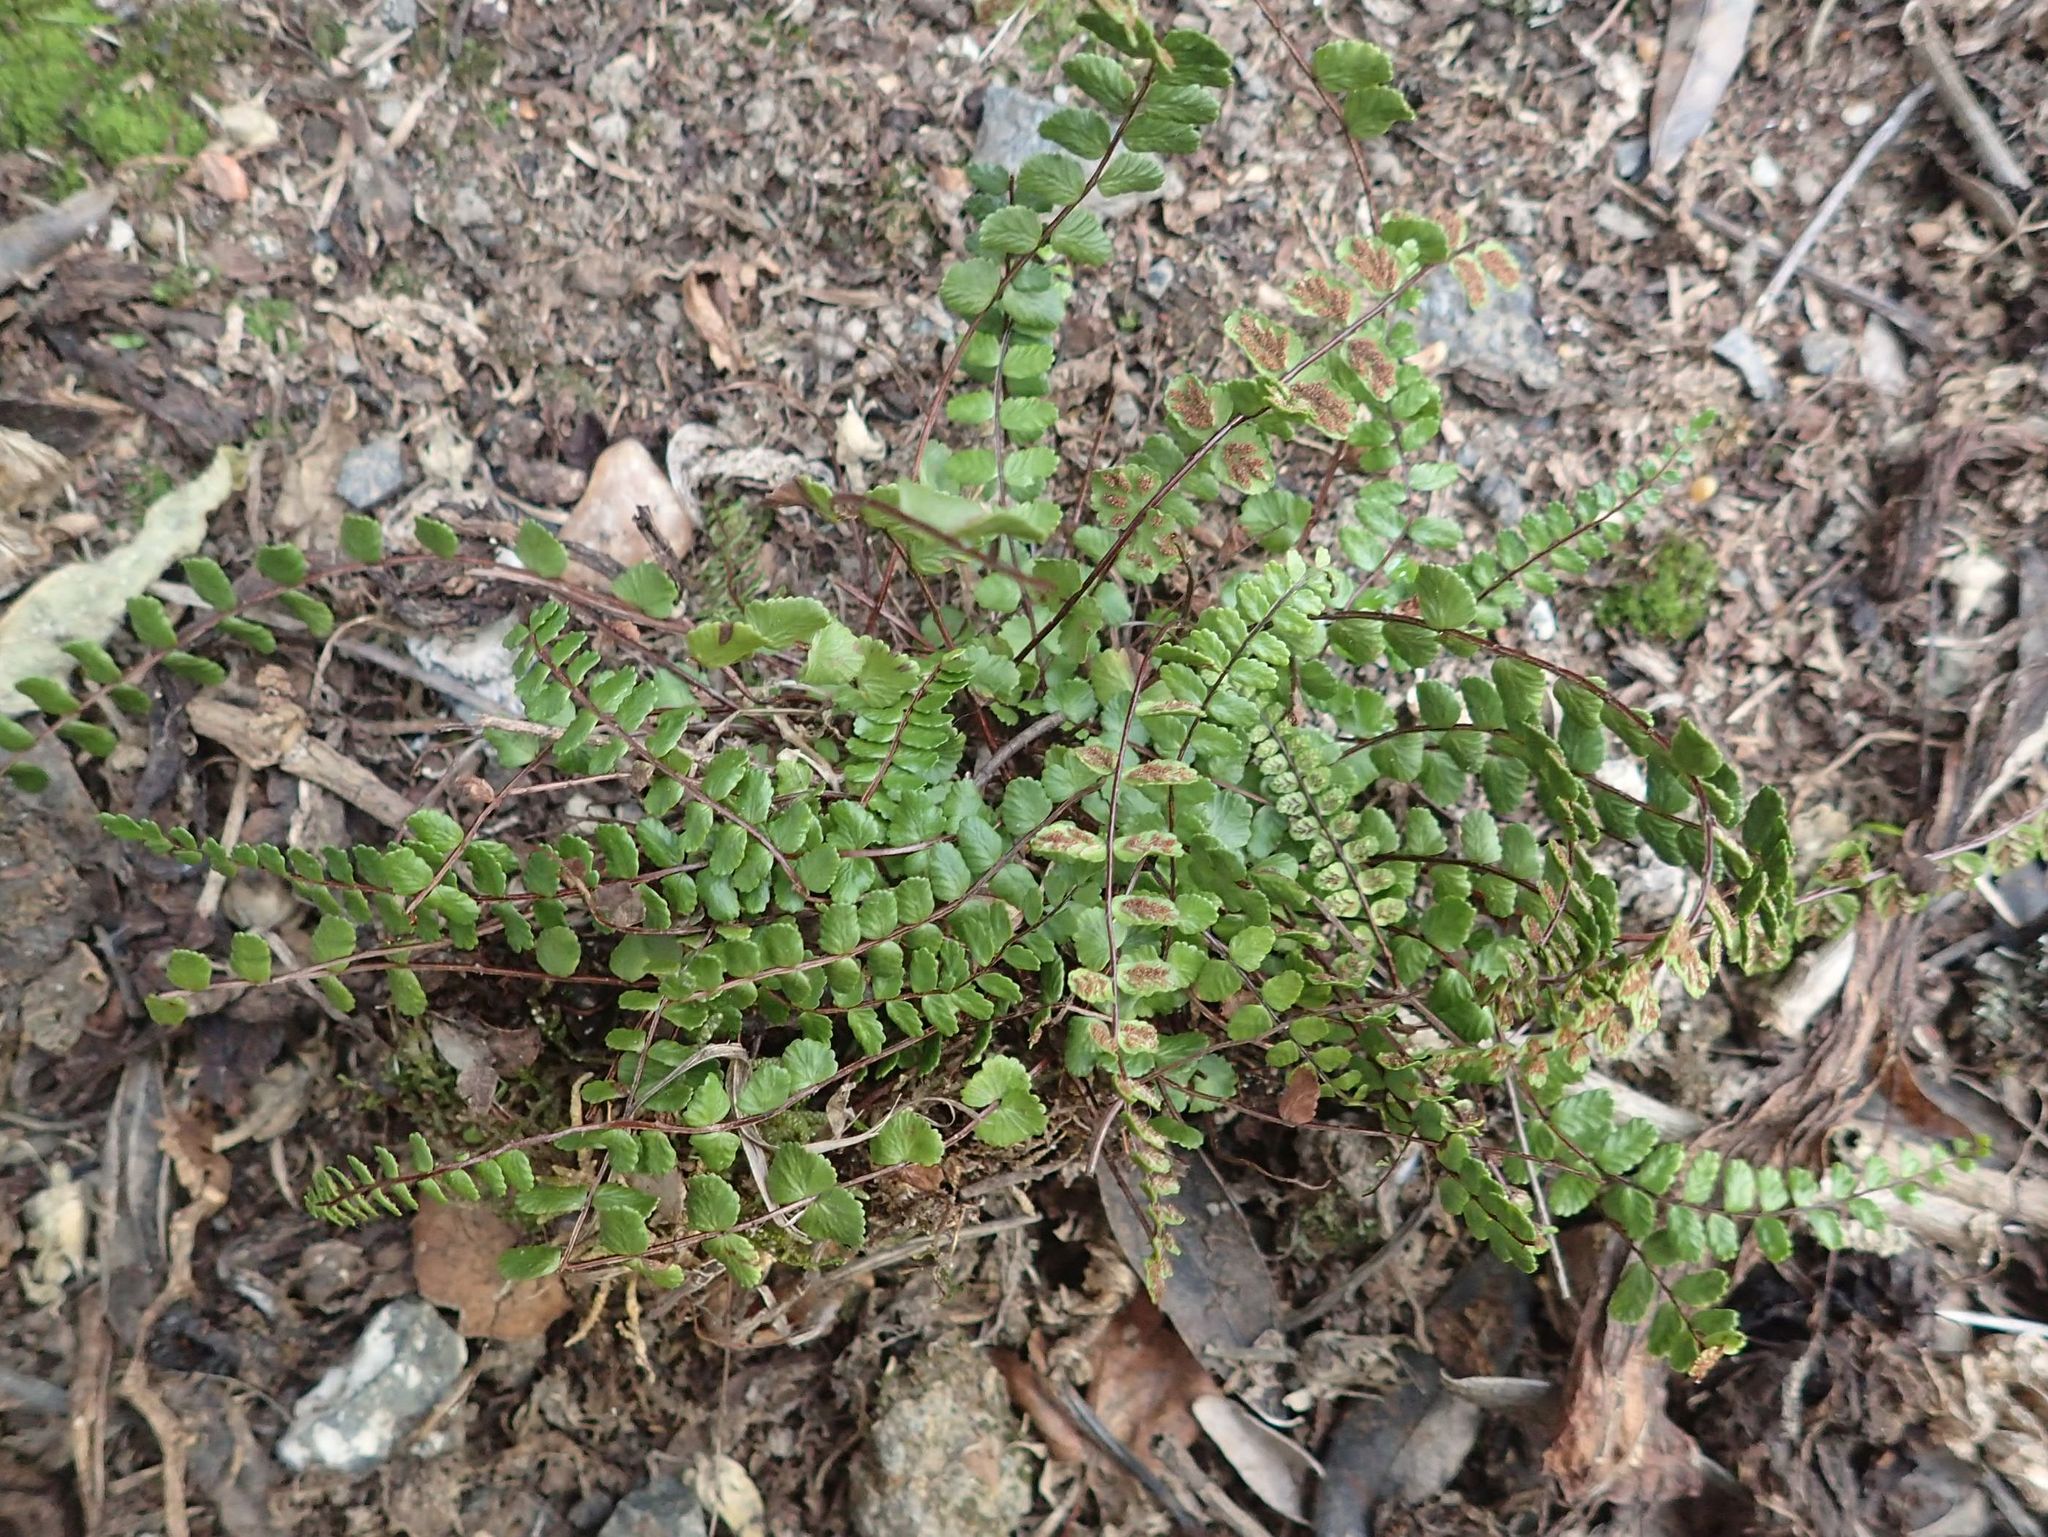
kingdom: Plantae
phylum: Tracheophyta
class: Polypodiopsida
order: Polypodiales
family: Aspleniaceae
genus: Asplenium
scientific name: Asplenium trichomanes
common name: Maidenhair spleenwort
